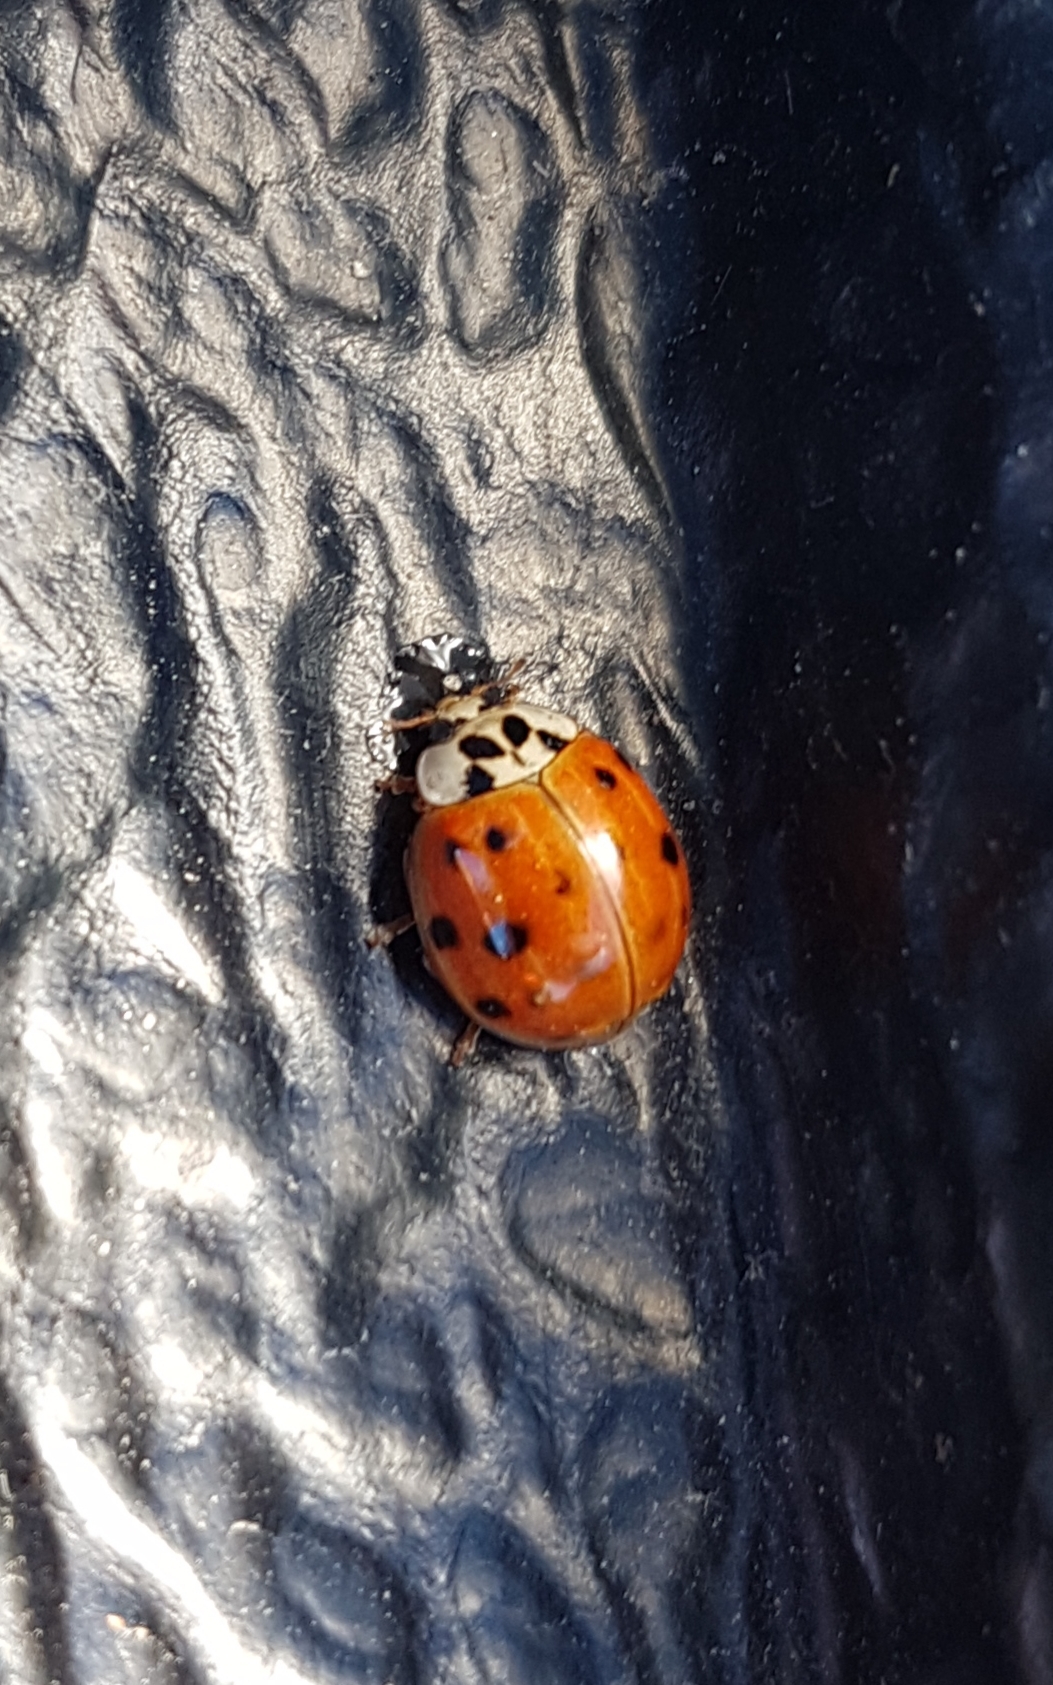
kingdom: Animalia
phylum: Arthropoda
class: Insecta
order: Coleoptera
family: Coccinellidae
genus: Harmonia
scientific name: Harmonia axyridis
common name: Harlequin ladybird
